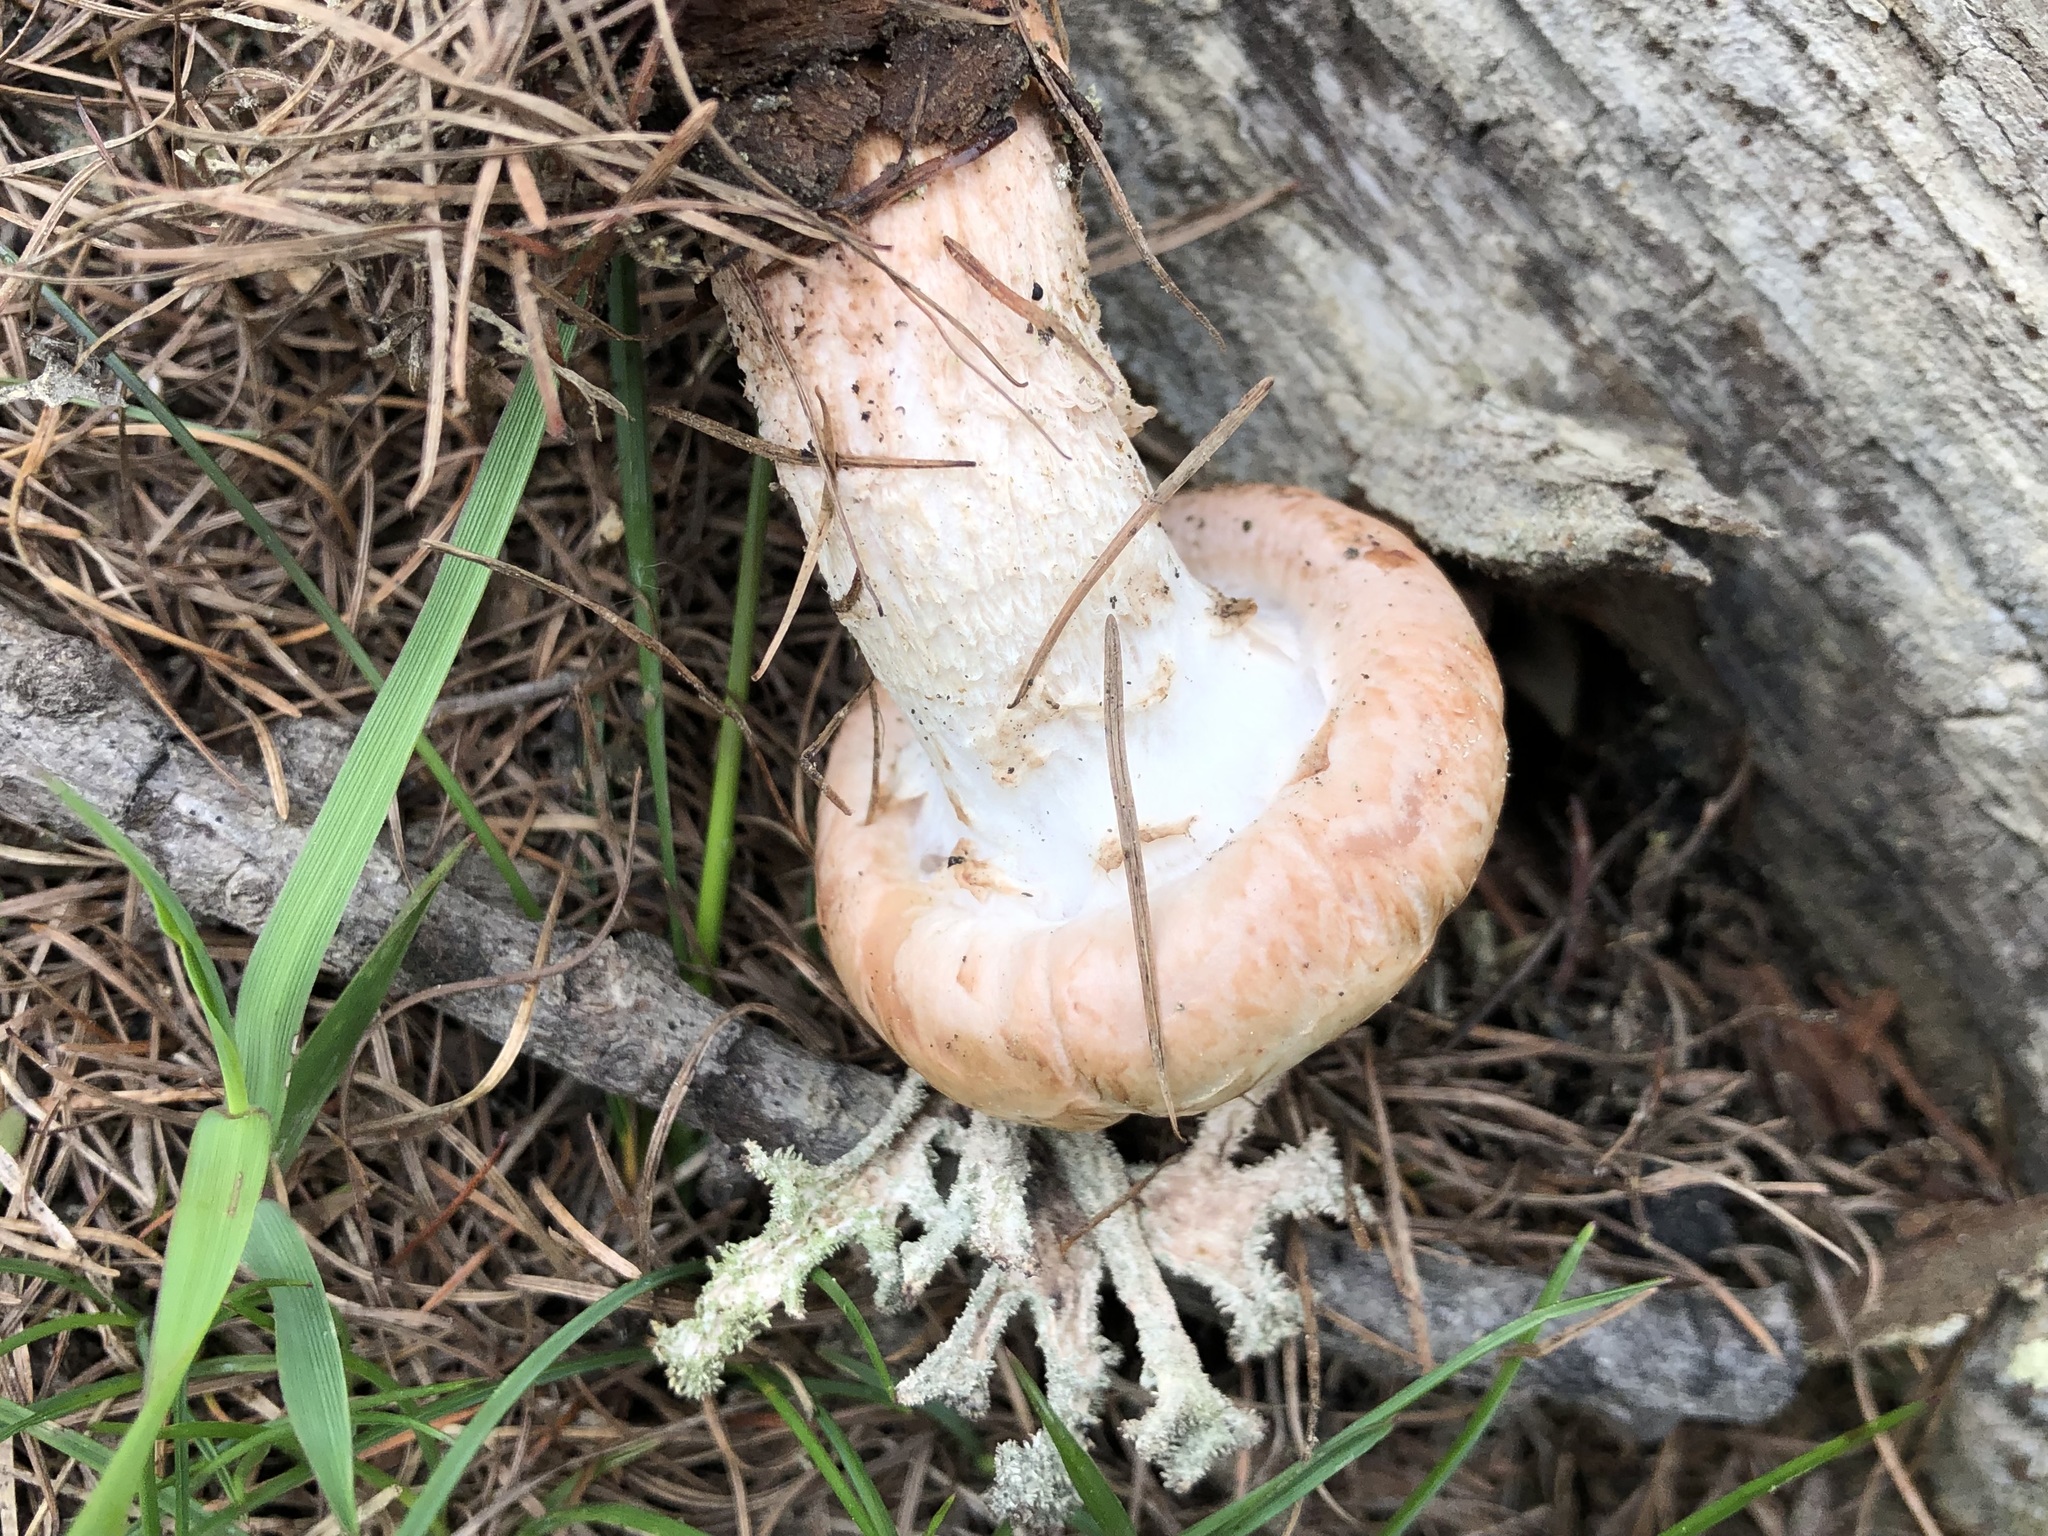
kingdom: Fungi
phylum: Basidiomycota
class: Agaricomycetes
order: Gloeophyllales
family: Gloeophyllaceae
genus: Neolentinus
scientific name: Neolentinus lepideus
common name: Scaly sawgill
